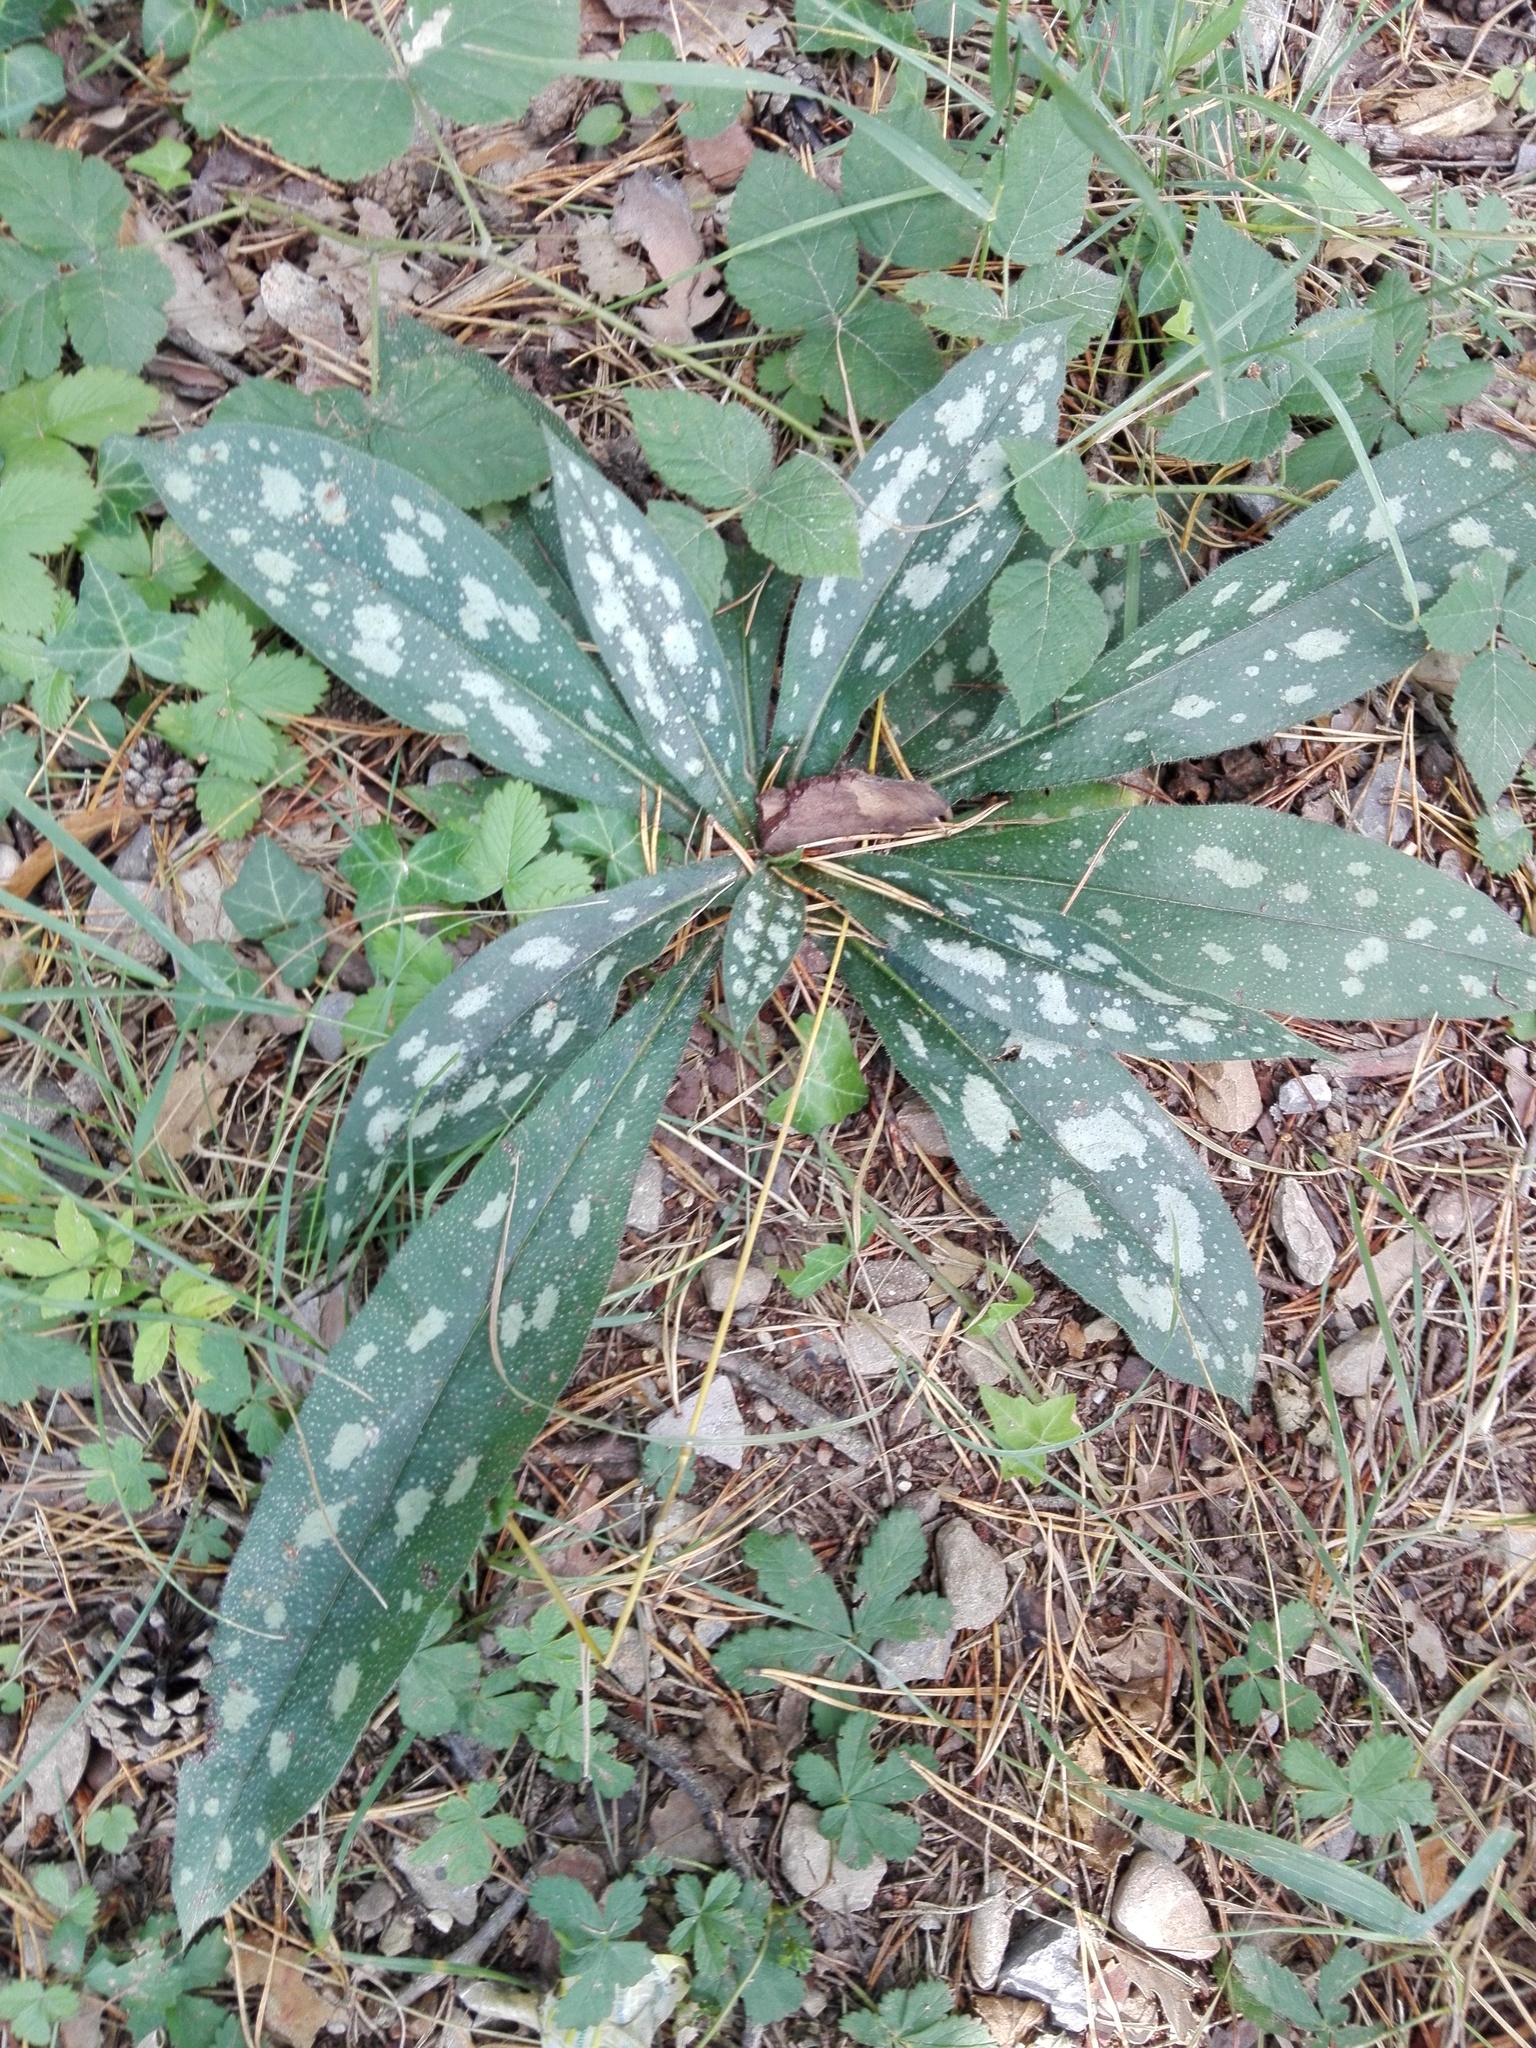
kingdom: Plantae
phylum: Tracheophyta
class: Magnoliopsida
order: Boraginales
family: Boraginaceae
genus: Pulmonaria
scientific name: Pulmonaria longifolia
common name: Narrow-leaved lungwort
